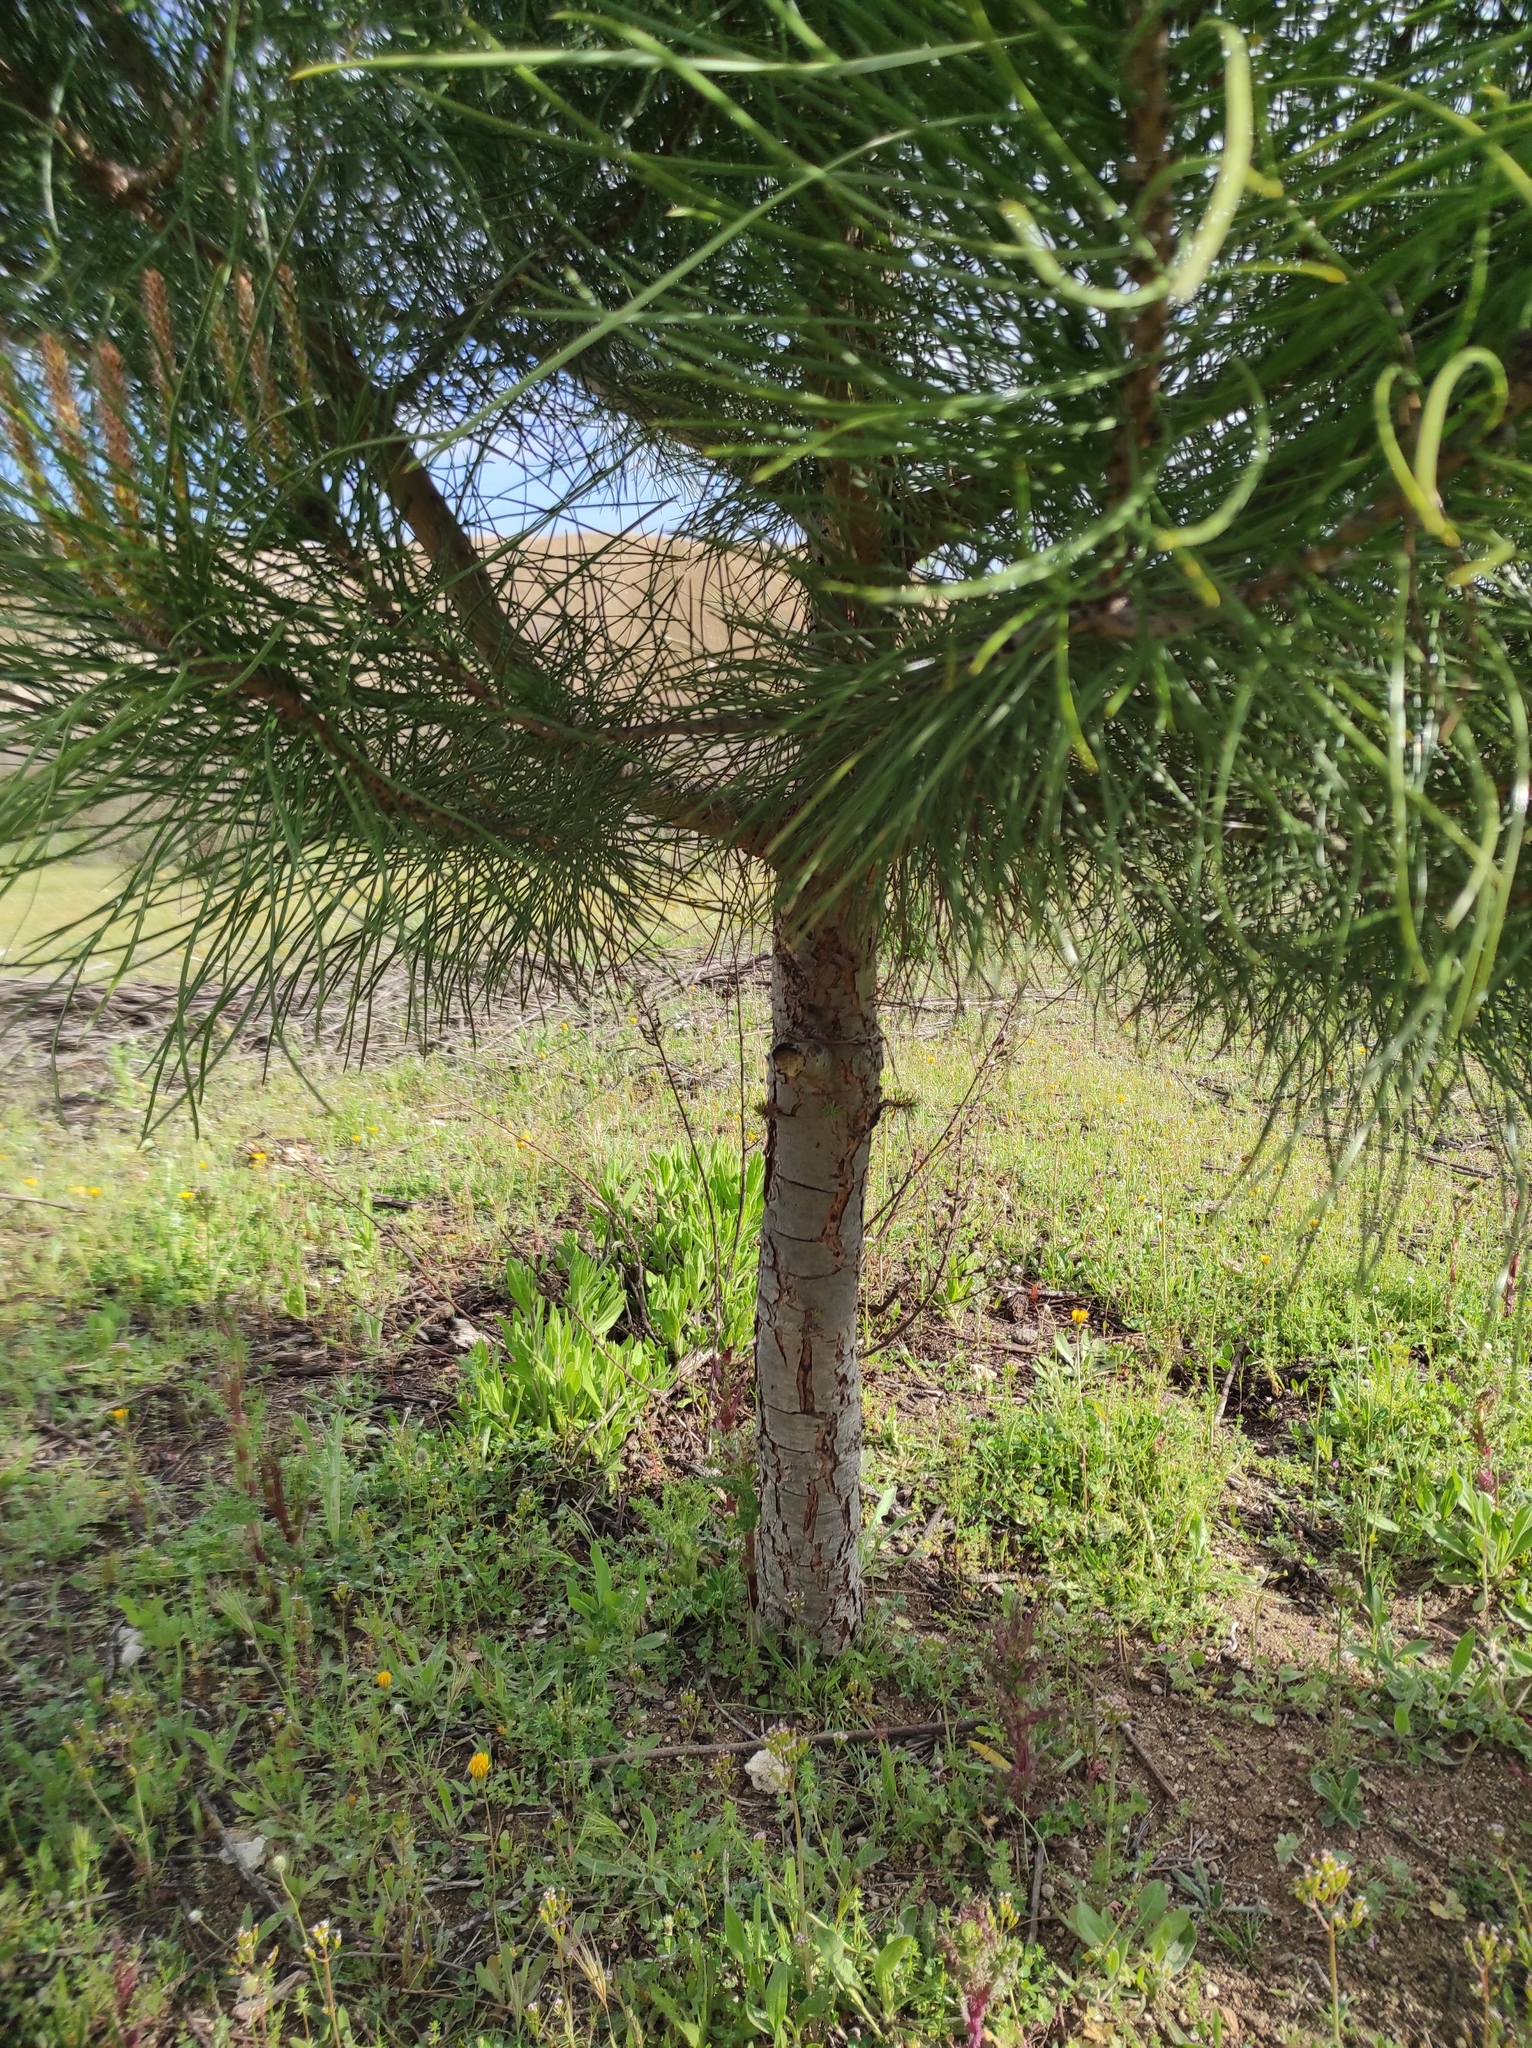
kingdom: Plantae
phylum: Tracheophyta
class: Pinopsida
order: Pinales
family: Pinaceae
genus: Pinus
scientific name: Pinus pinea
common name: Italian stone pine
